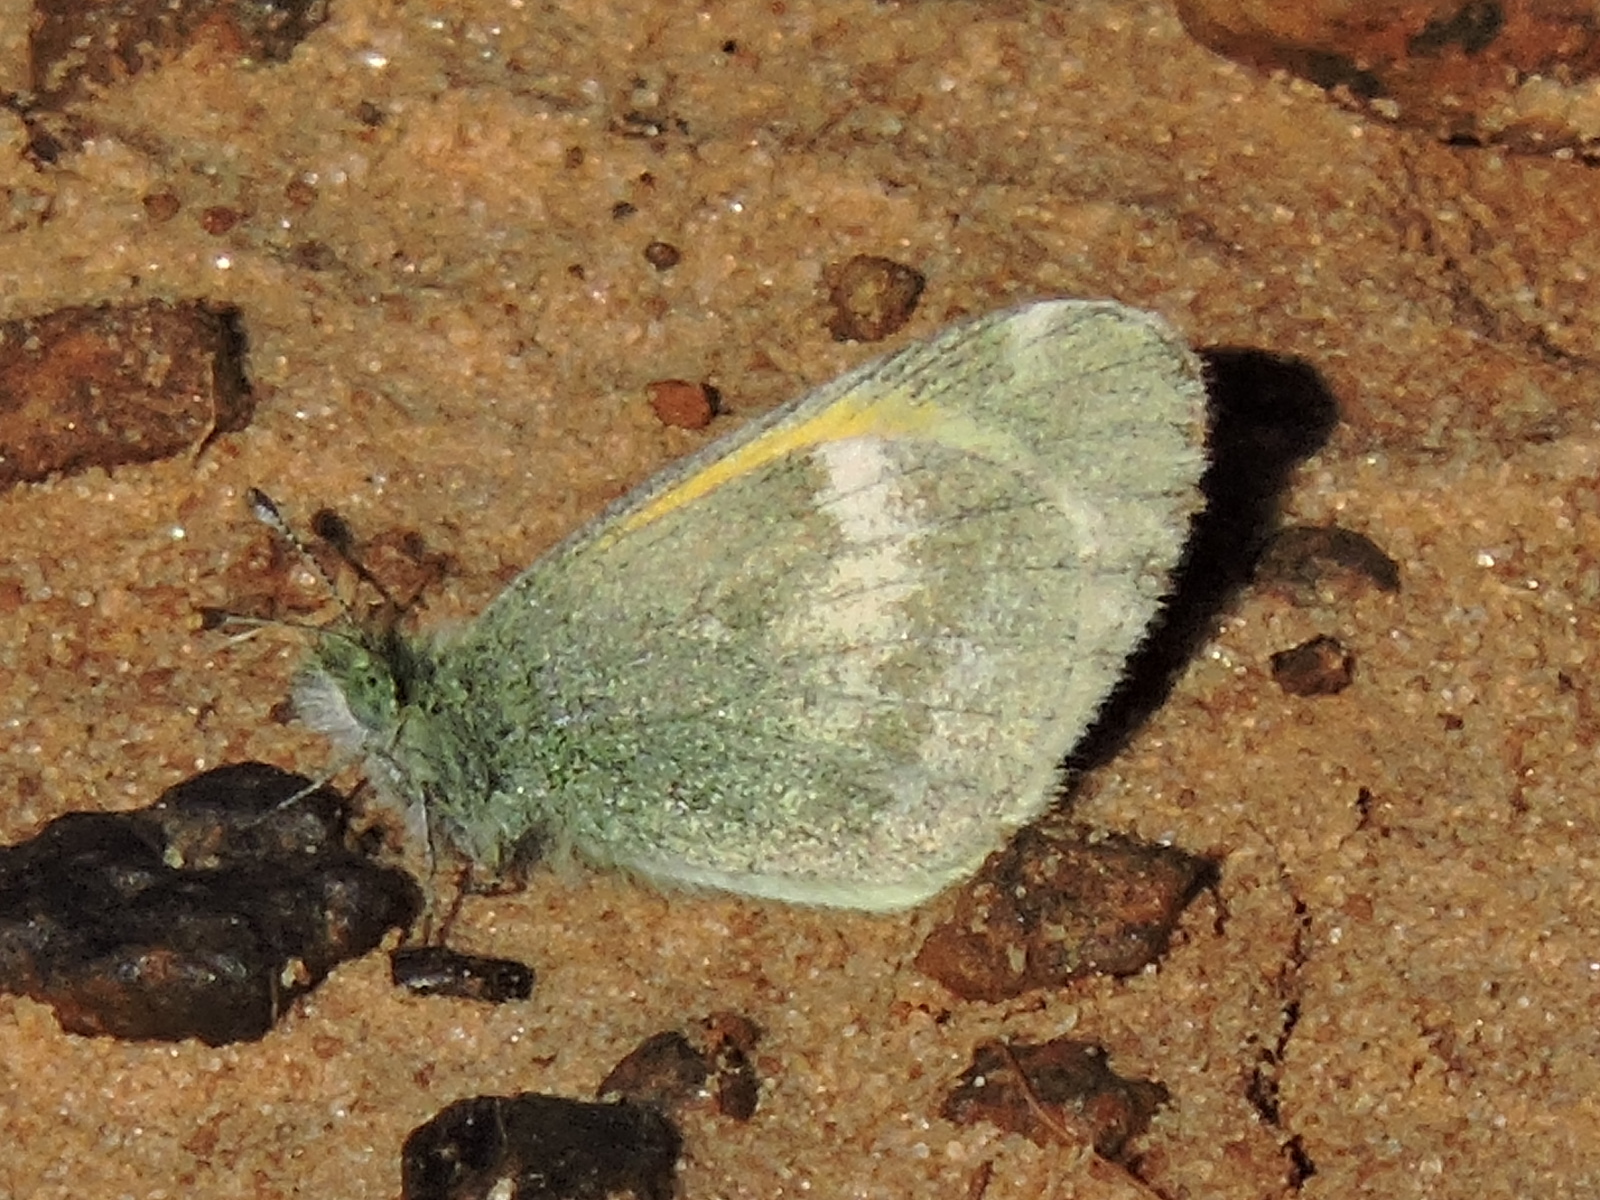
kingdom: Animalia
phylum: Arthropoda
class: Insecta
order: Lepidoptera
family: Pieridae
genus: Nathalis
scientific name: Nathalis iole
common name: Dainty sulphur
